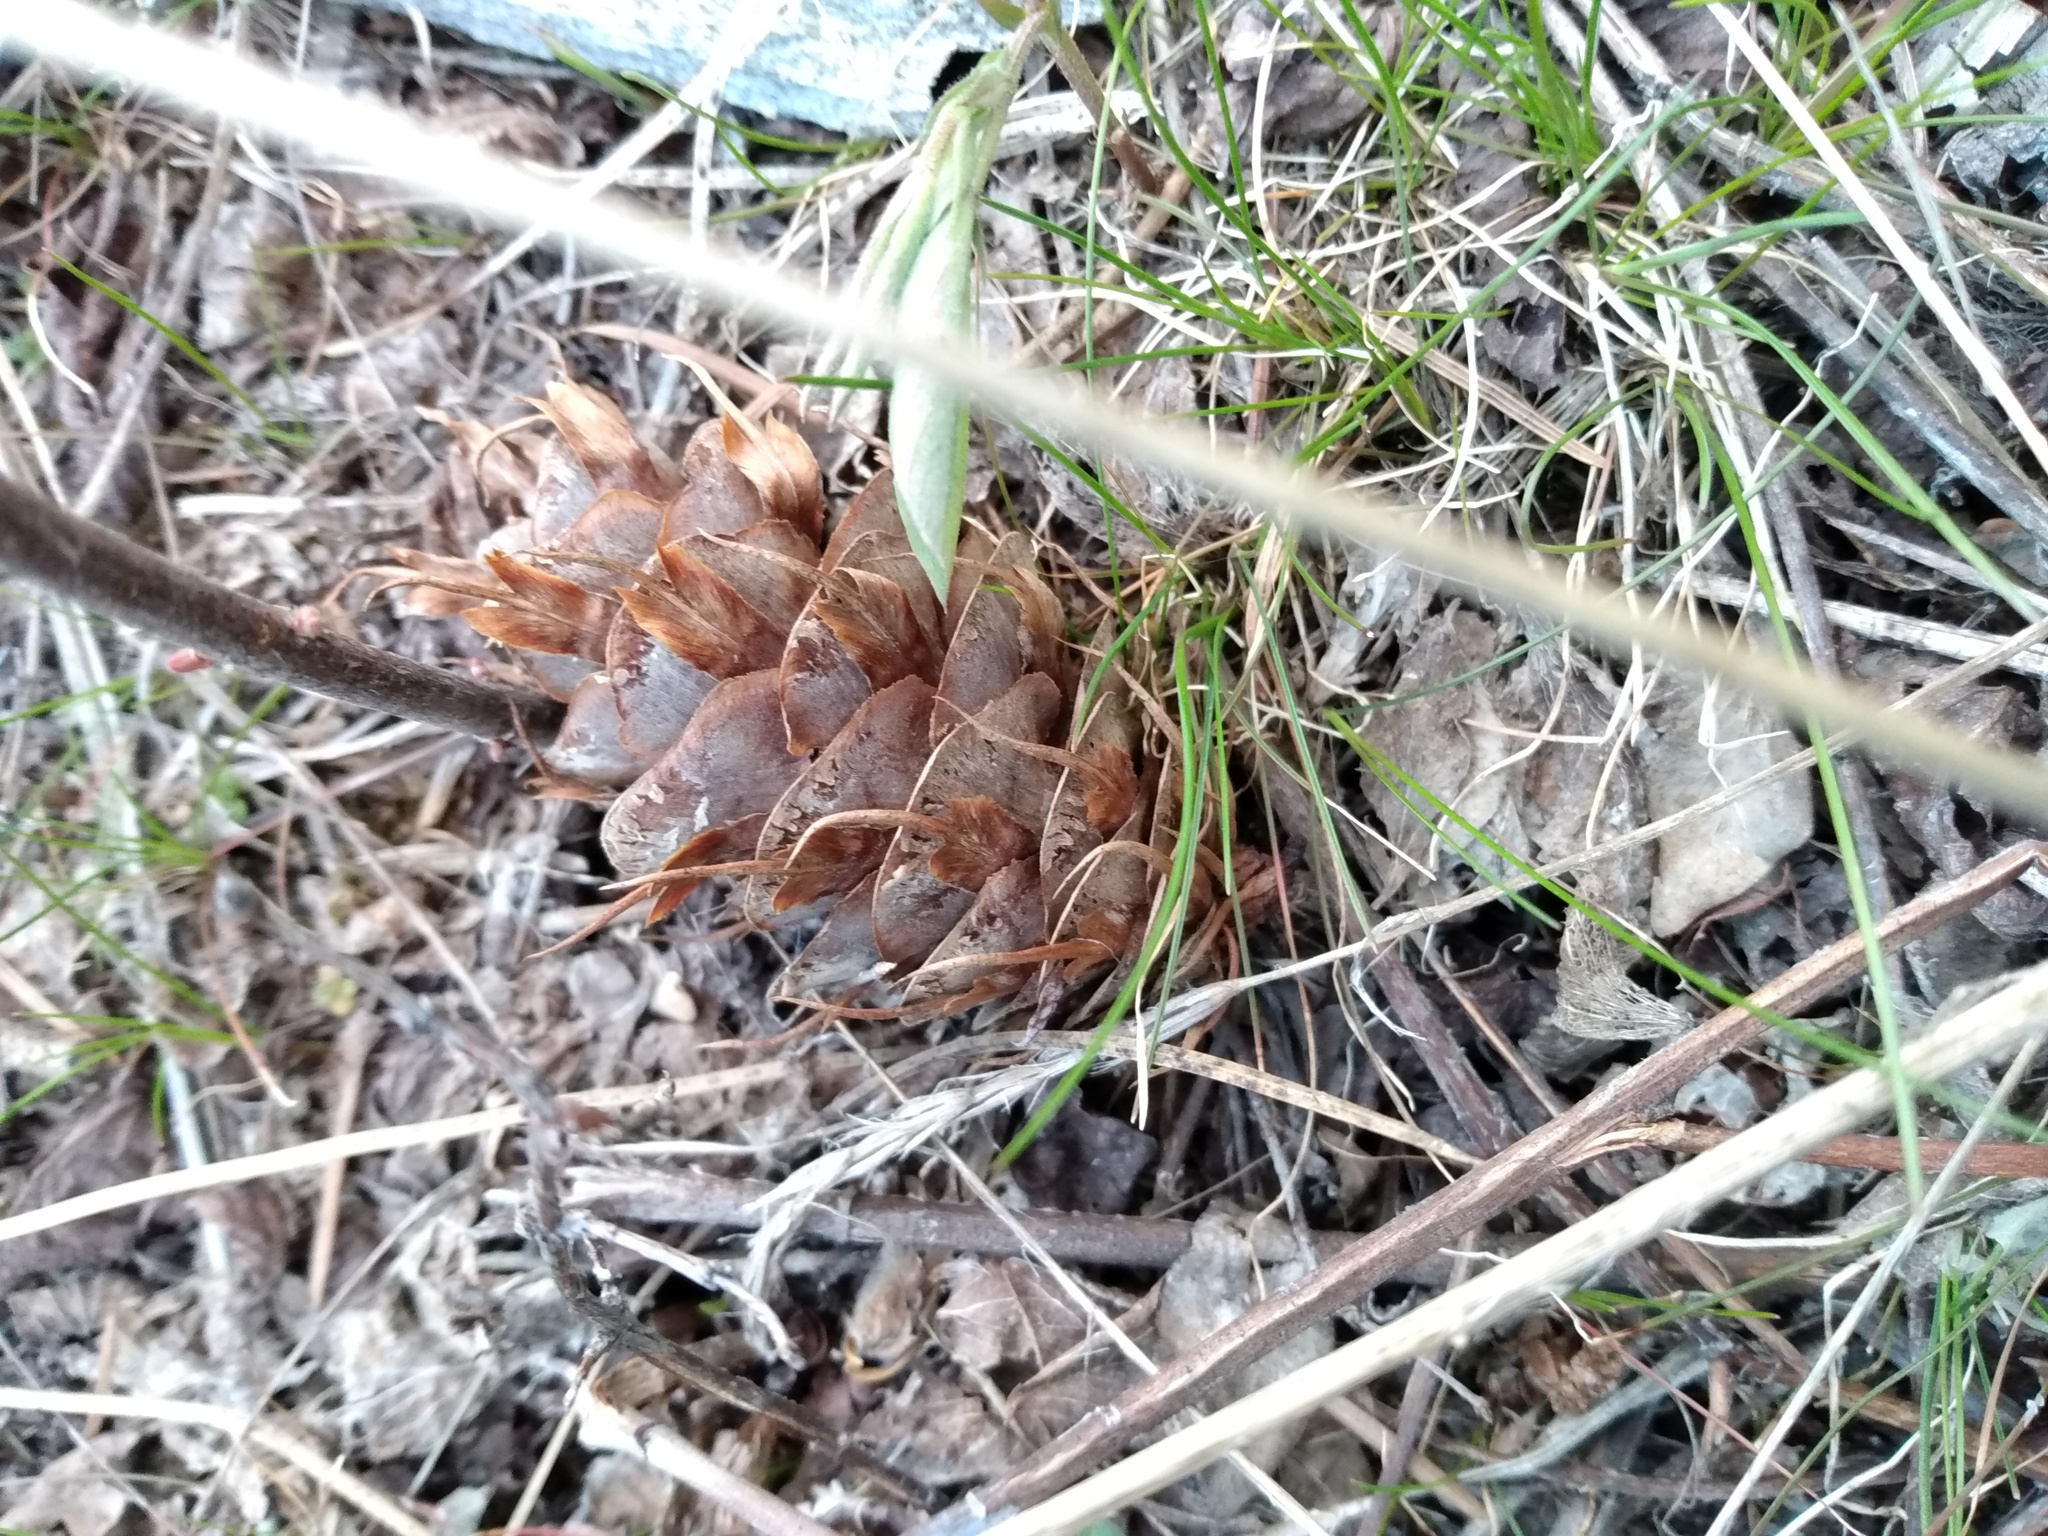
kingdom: Plantae
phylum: Tracheophyta
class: Pinopsida
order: Pinales
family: Pinaceae
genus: Pseudotsuga
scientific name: Pseudotsuga menziesii
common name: Douglas fir
